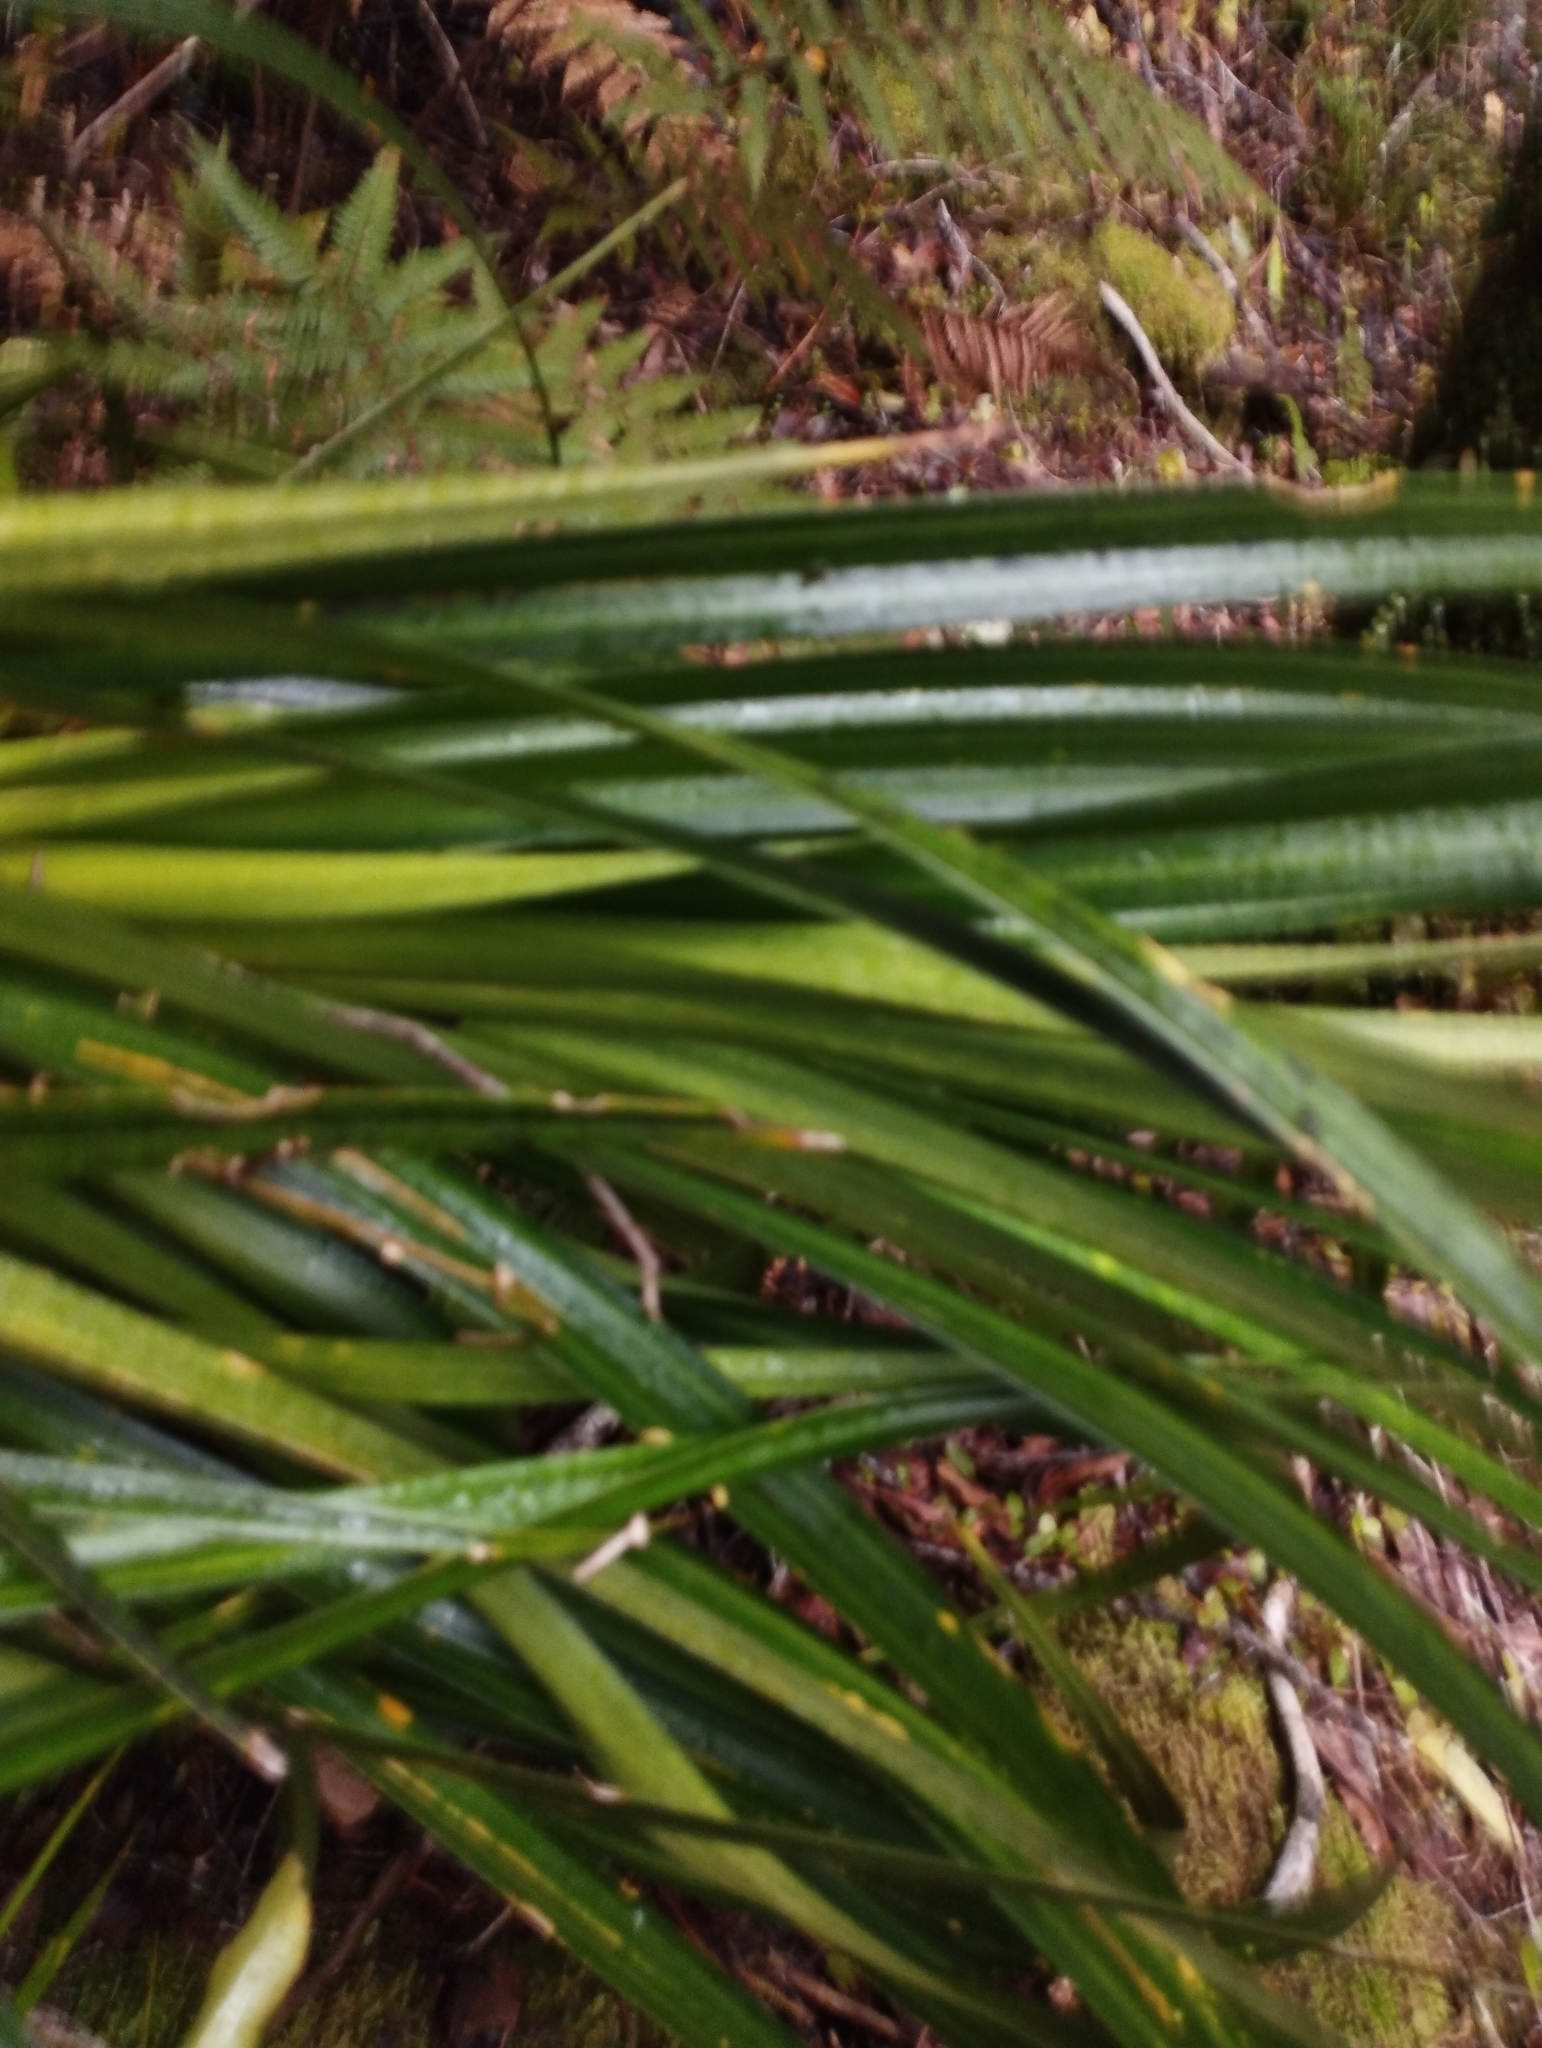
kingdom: Plantae
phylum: Tracheophyta
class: Liliopsida
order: Pandanales
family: Pandanaceae
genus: Freycinetia
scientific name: Freycinetia banksii
